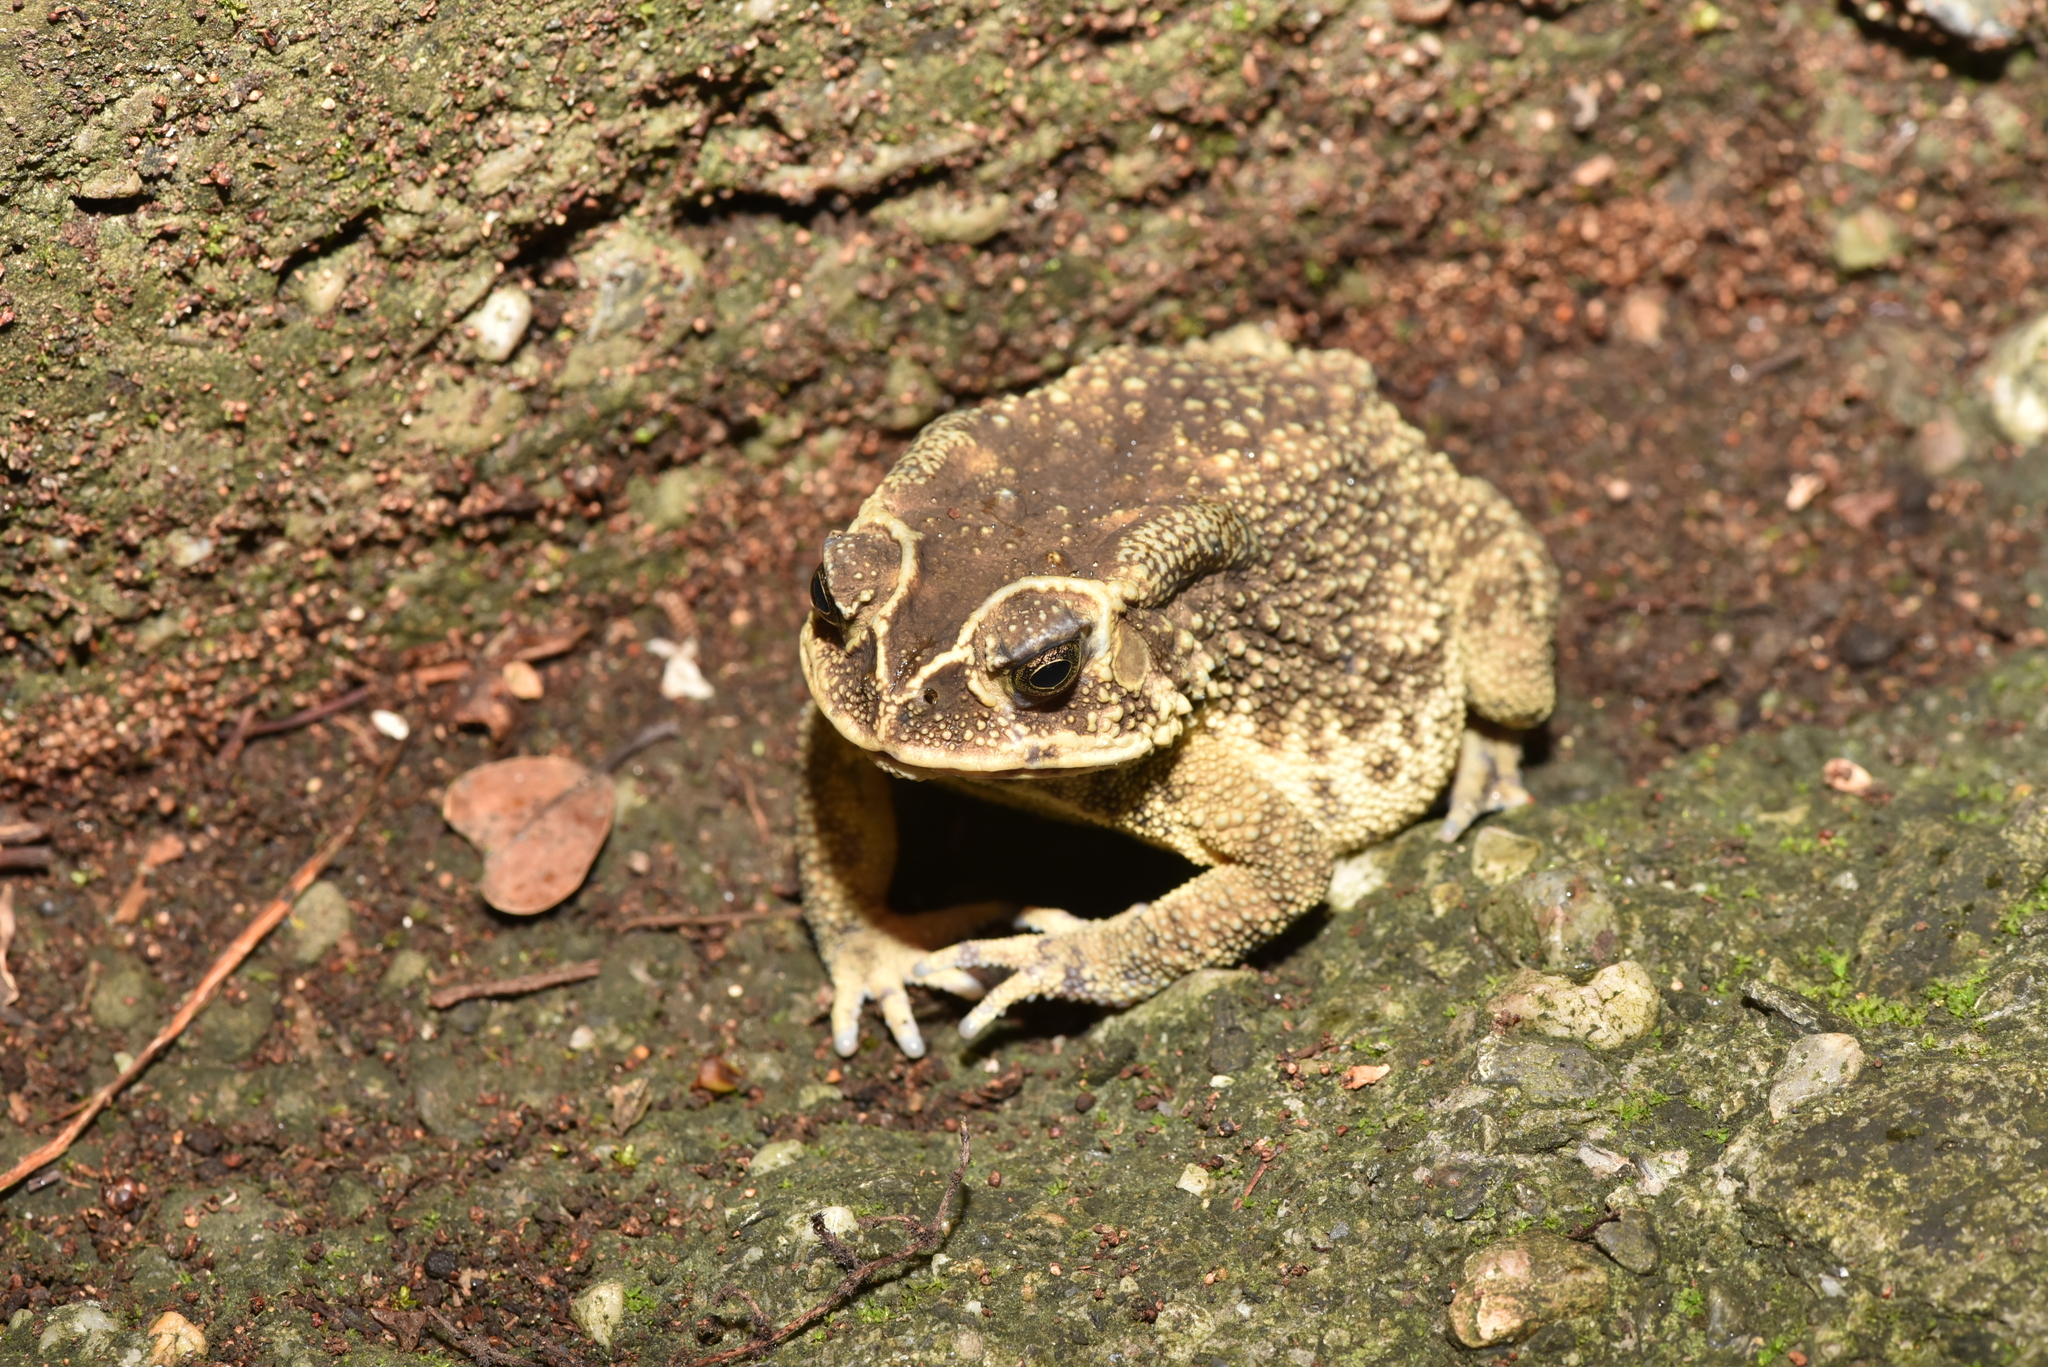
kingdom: Animalia
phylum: Chordata
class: Amphibia
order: Anura
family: Bufonidae
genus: Duttaphrynus
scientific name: Duttaphrynus melanostictus
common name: Common sunda toad
